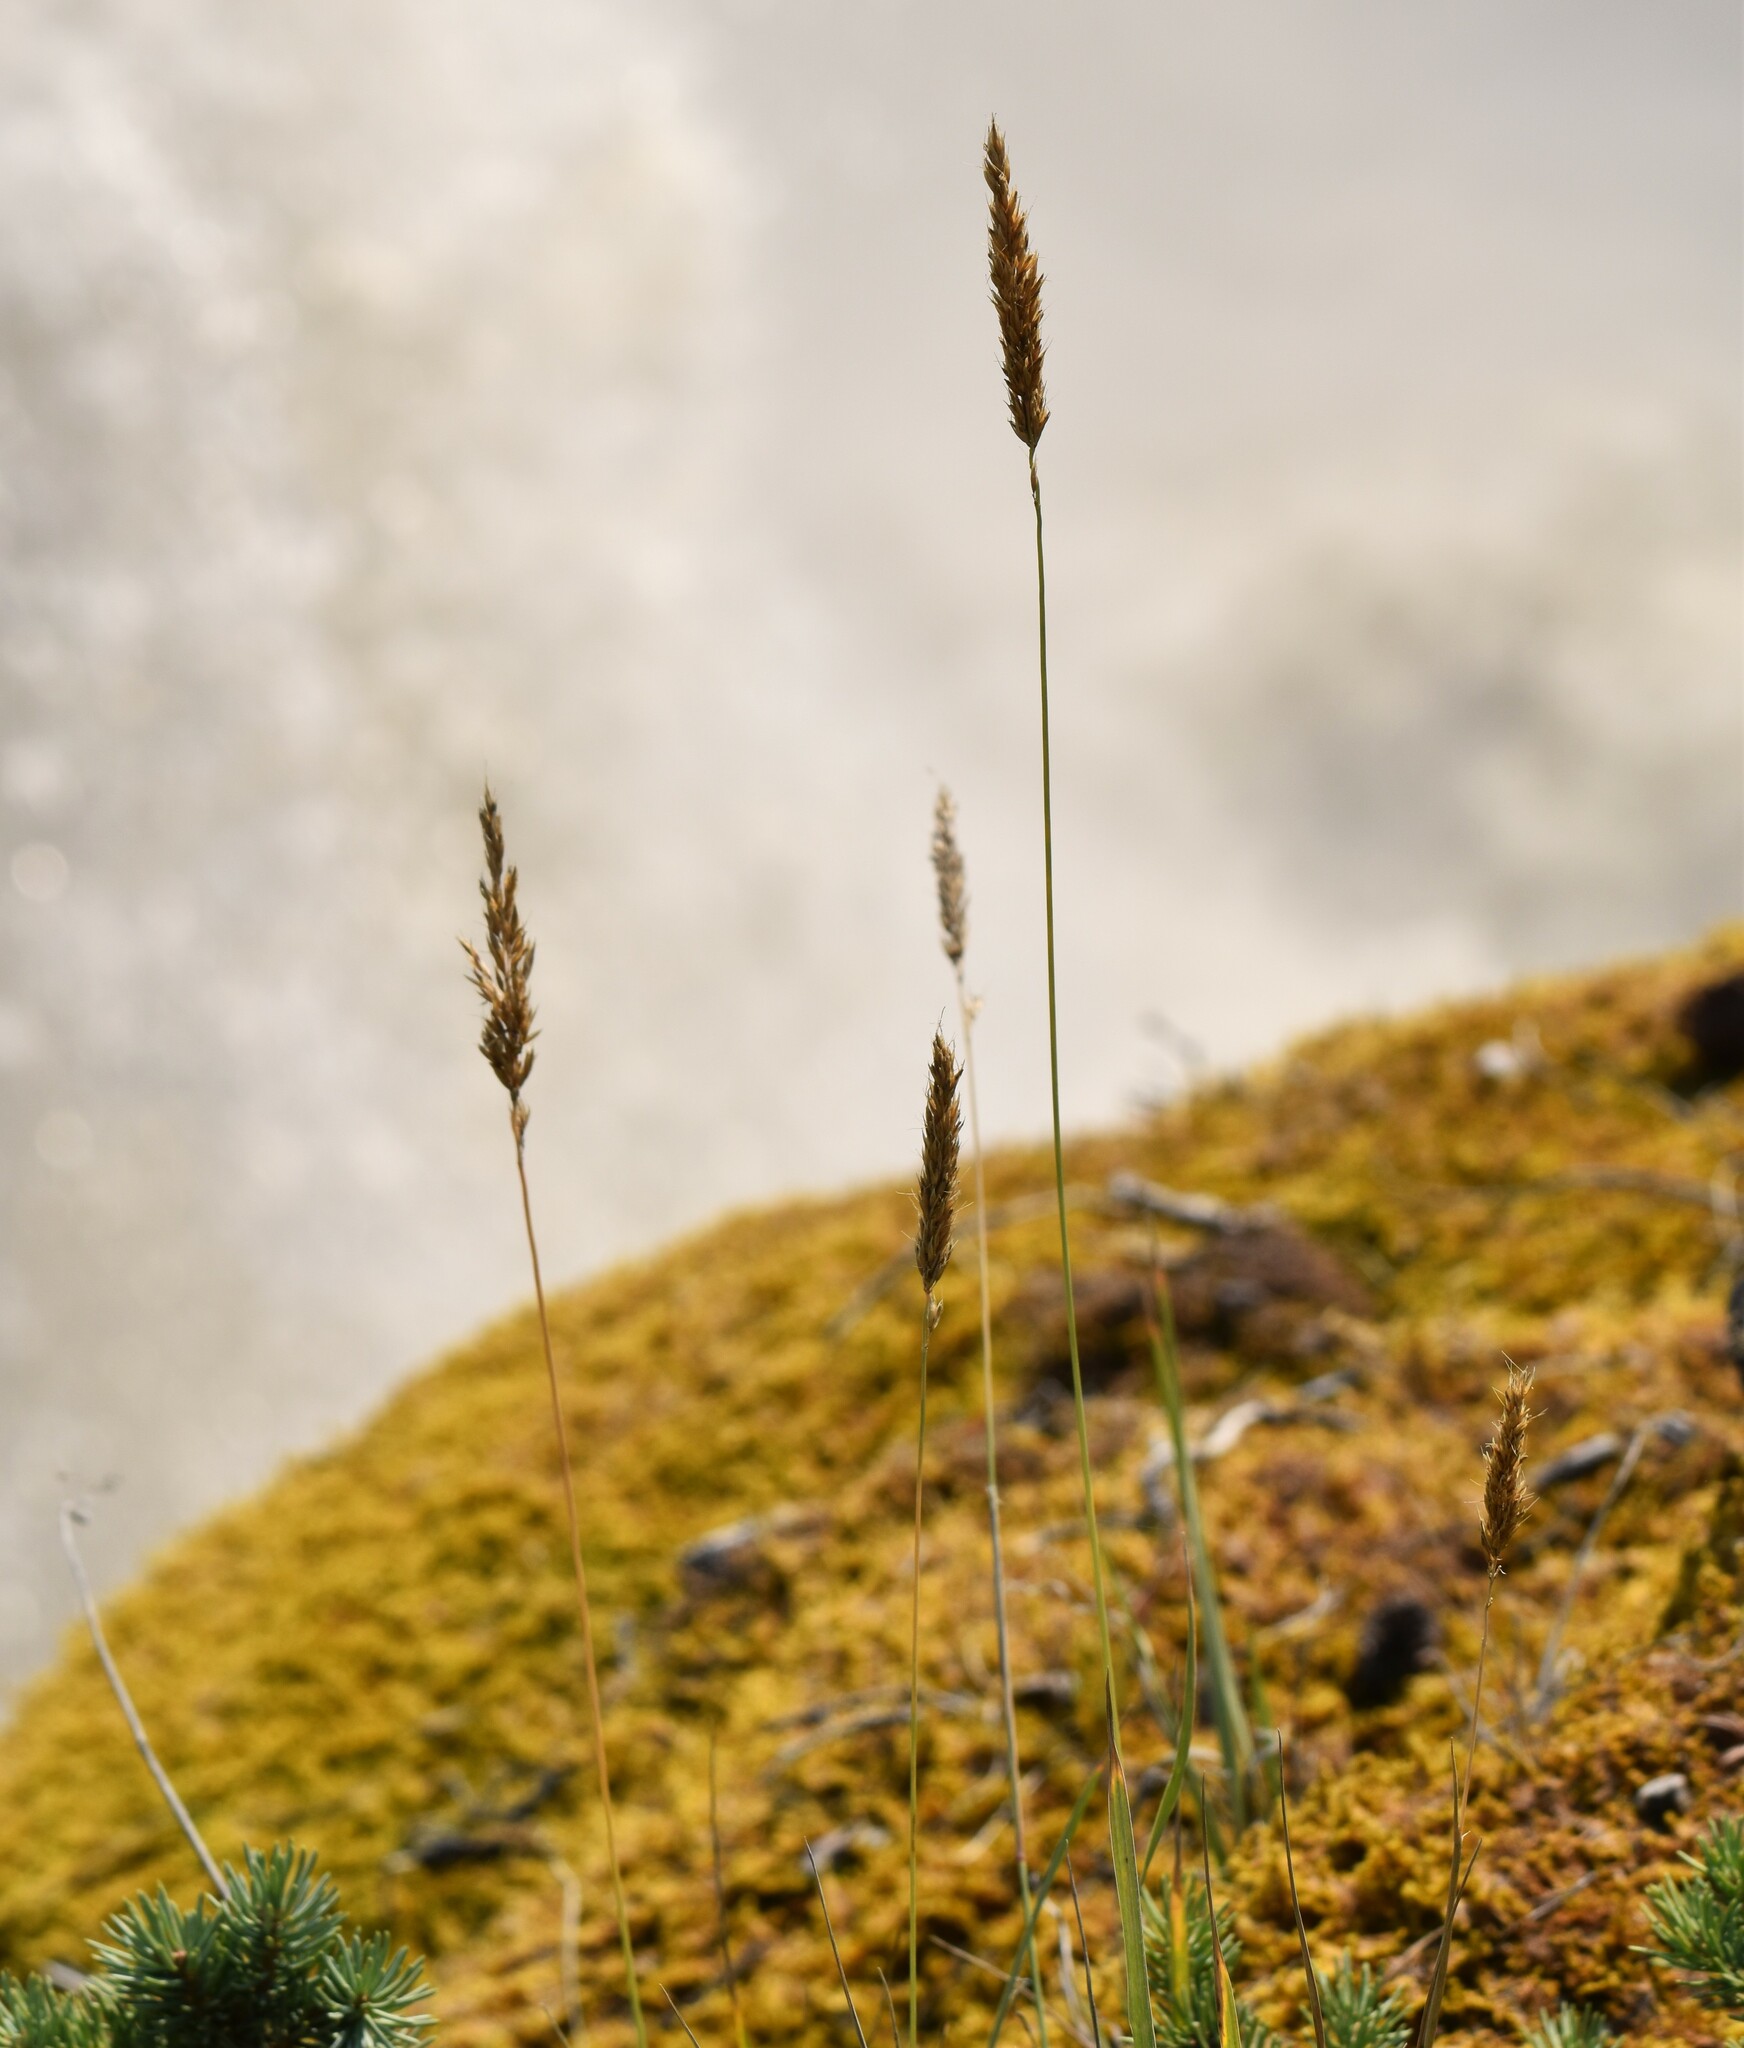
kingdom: Plantae
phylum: Tracheophyta
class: Liliopsida
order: Poales
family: Poaceae
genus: Koeleria
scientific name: Koeleria spicata
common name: Mountain trisetum
